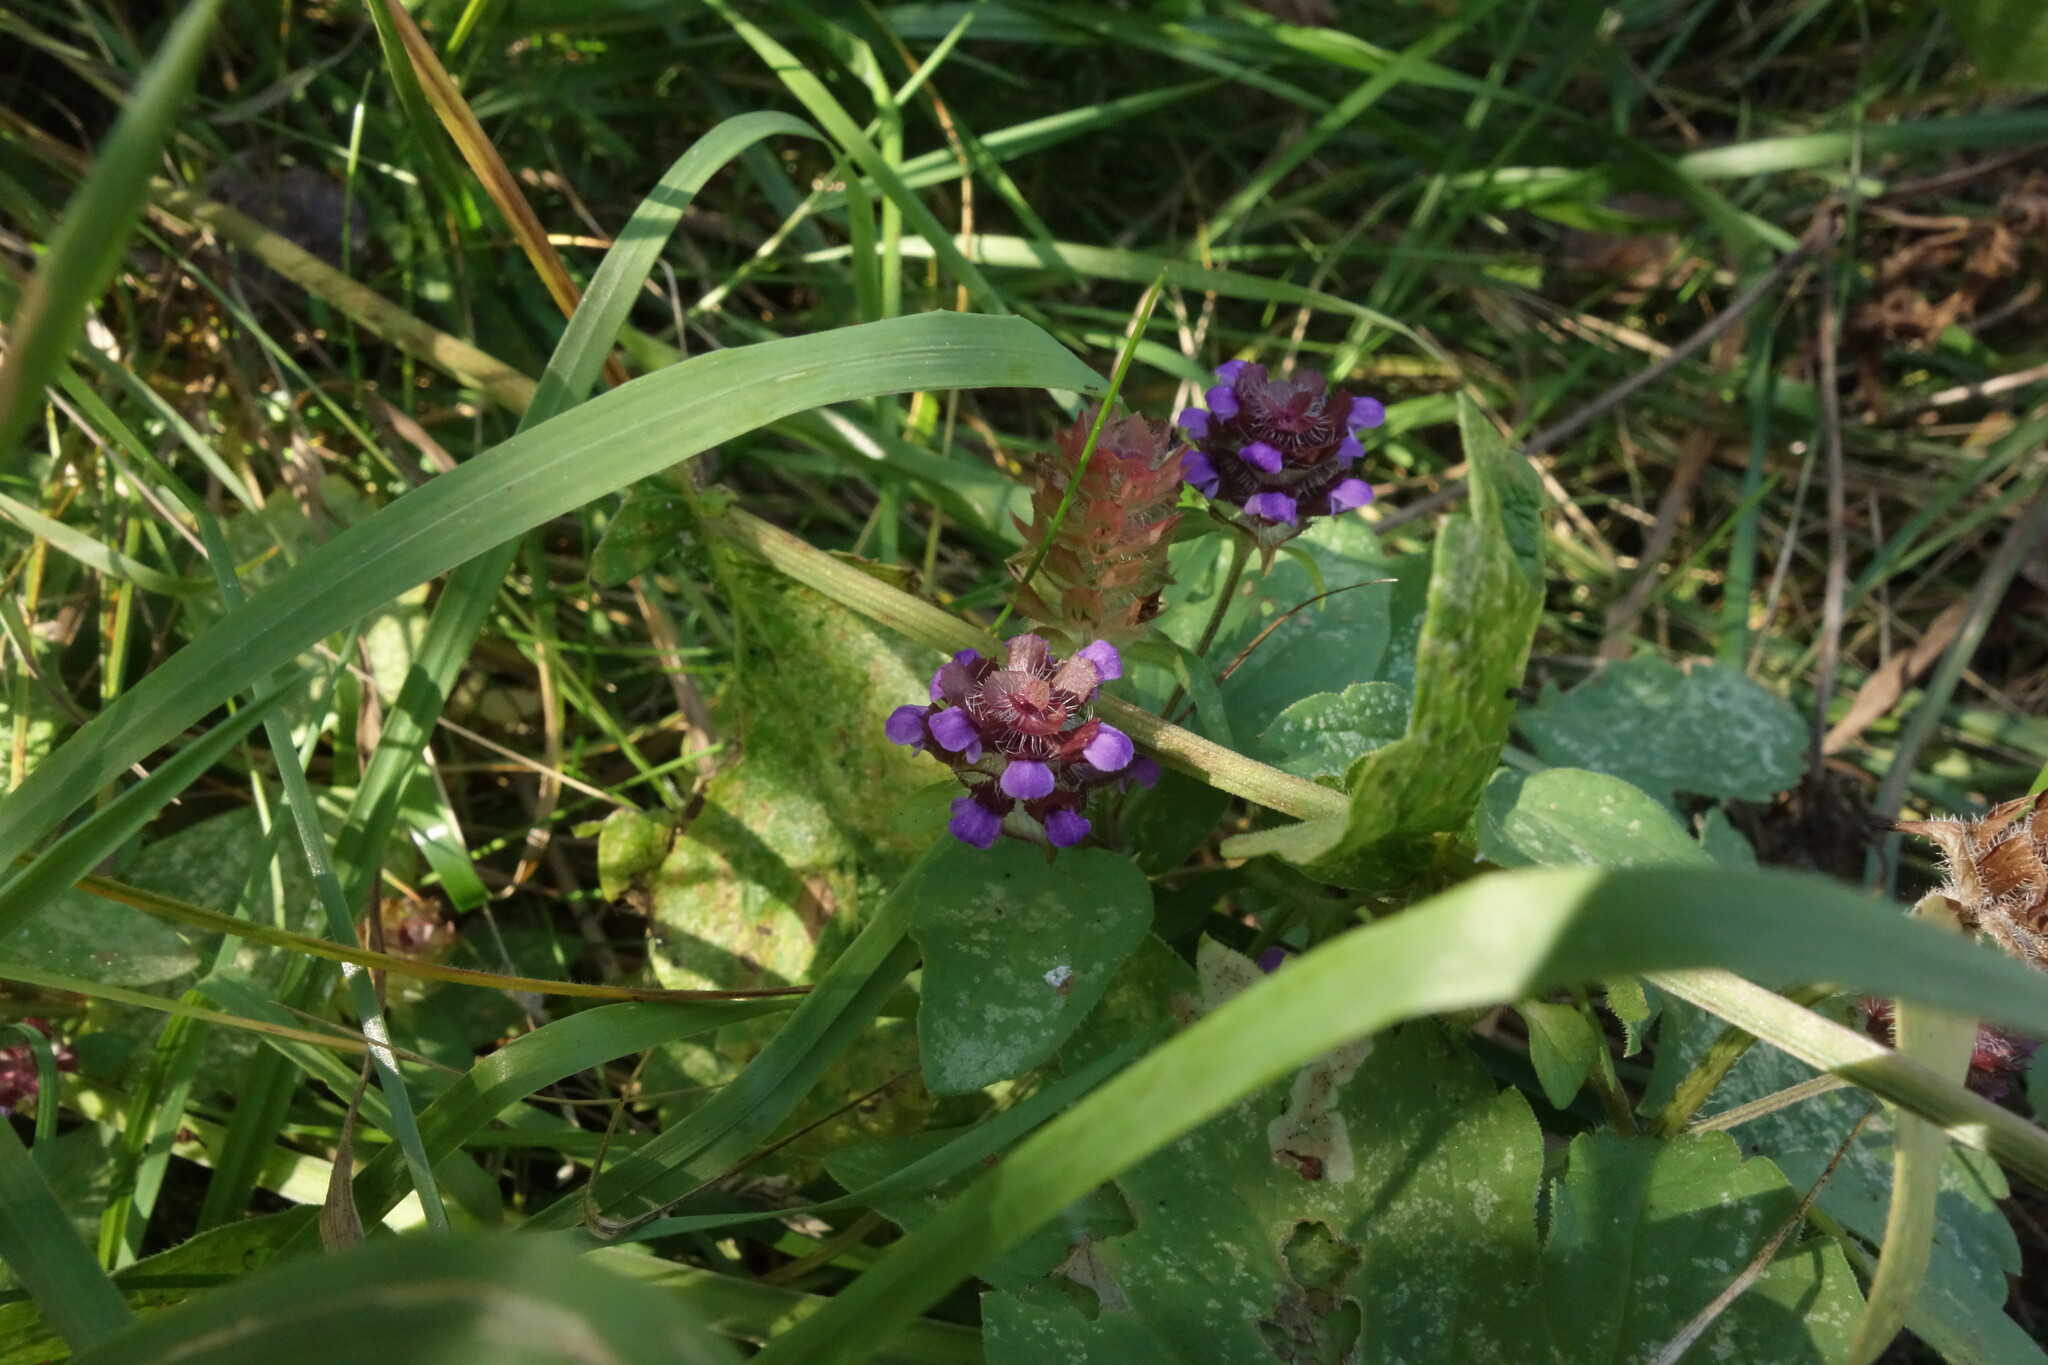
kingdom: Plantae
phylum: Tracheophyta
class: Magnoliopsida
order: Lamiales
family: Lamiaceae
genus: Prunella
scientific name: Prunella vulgaris
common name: Heal-all
